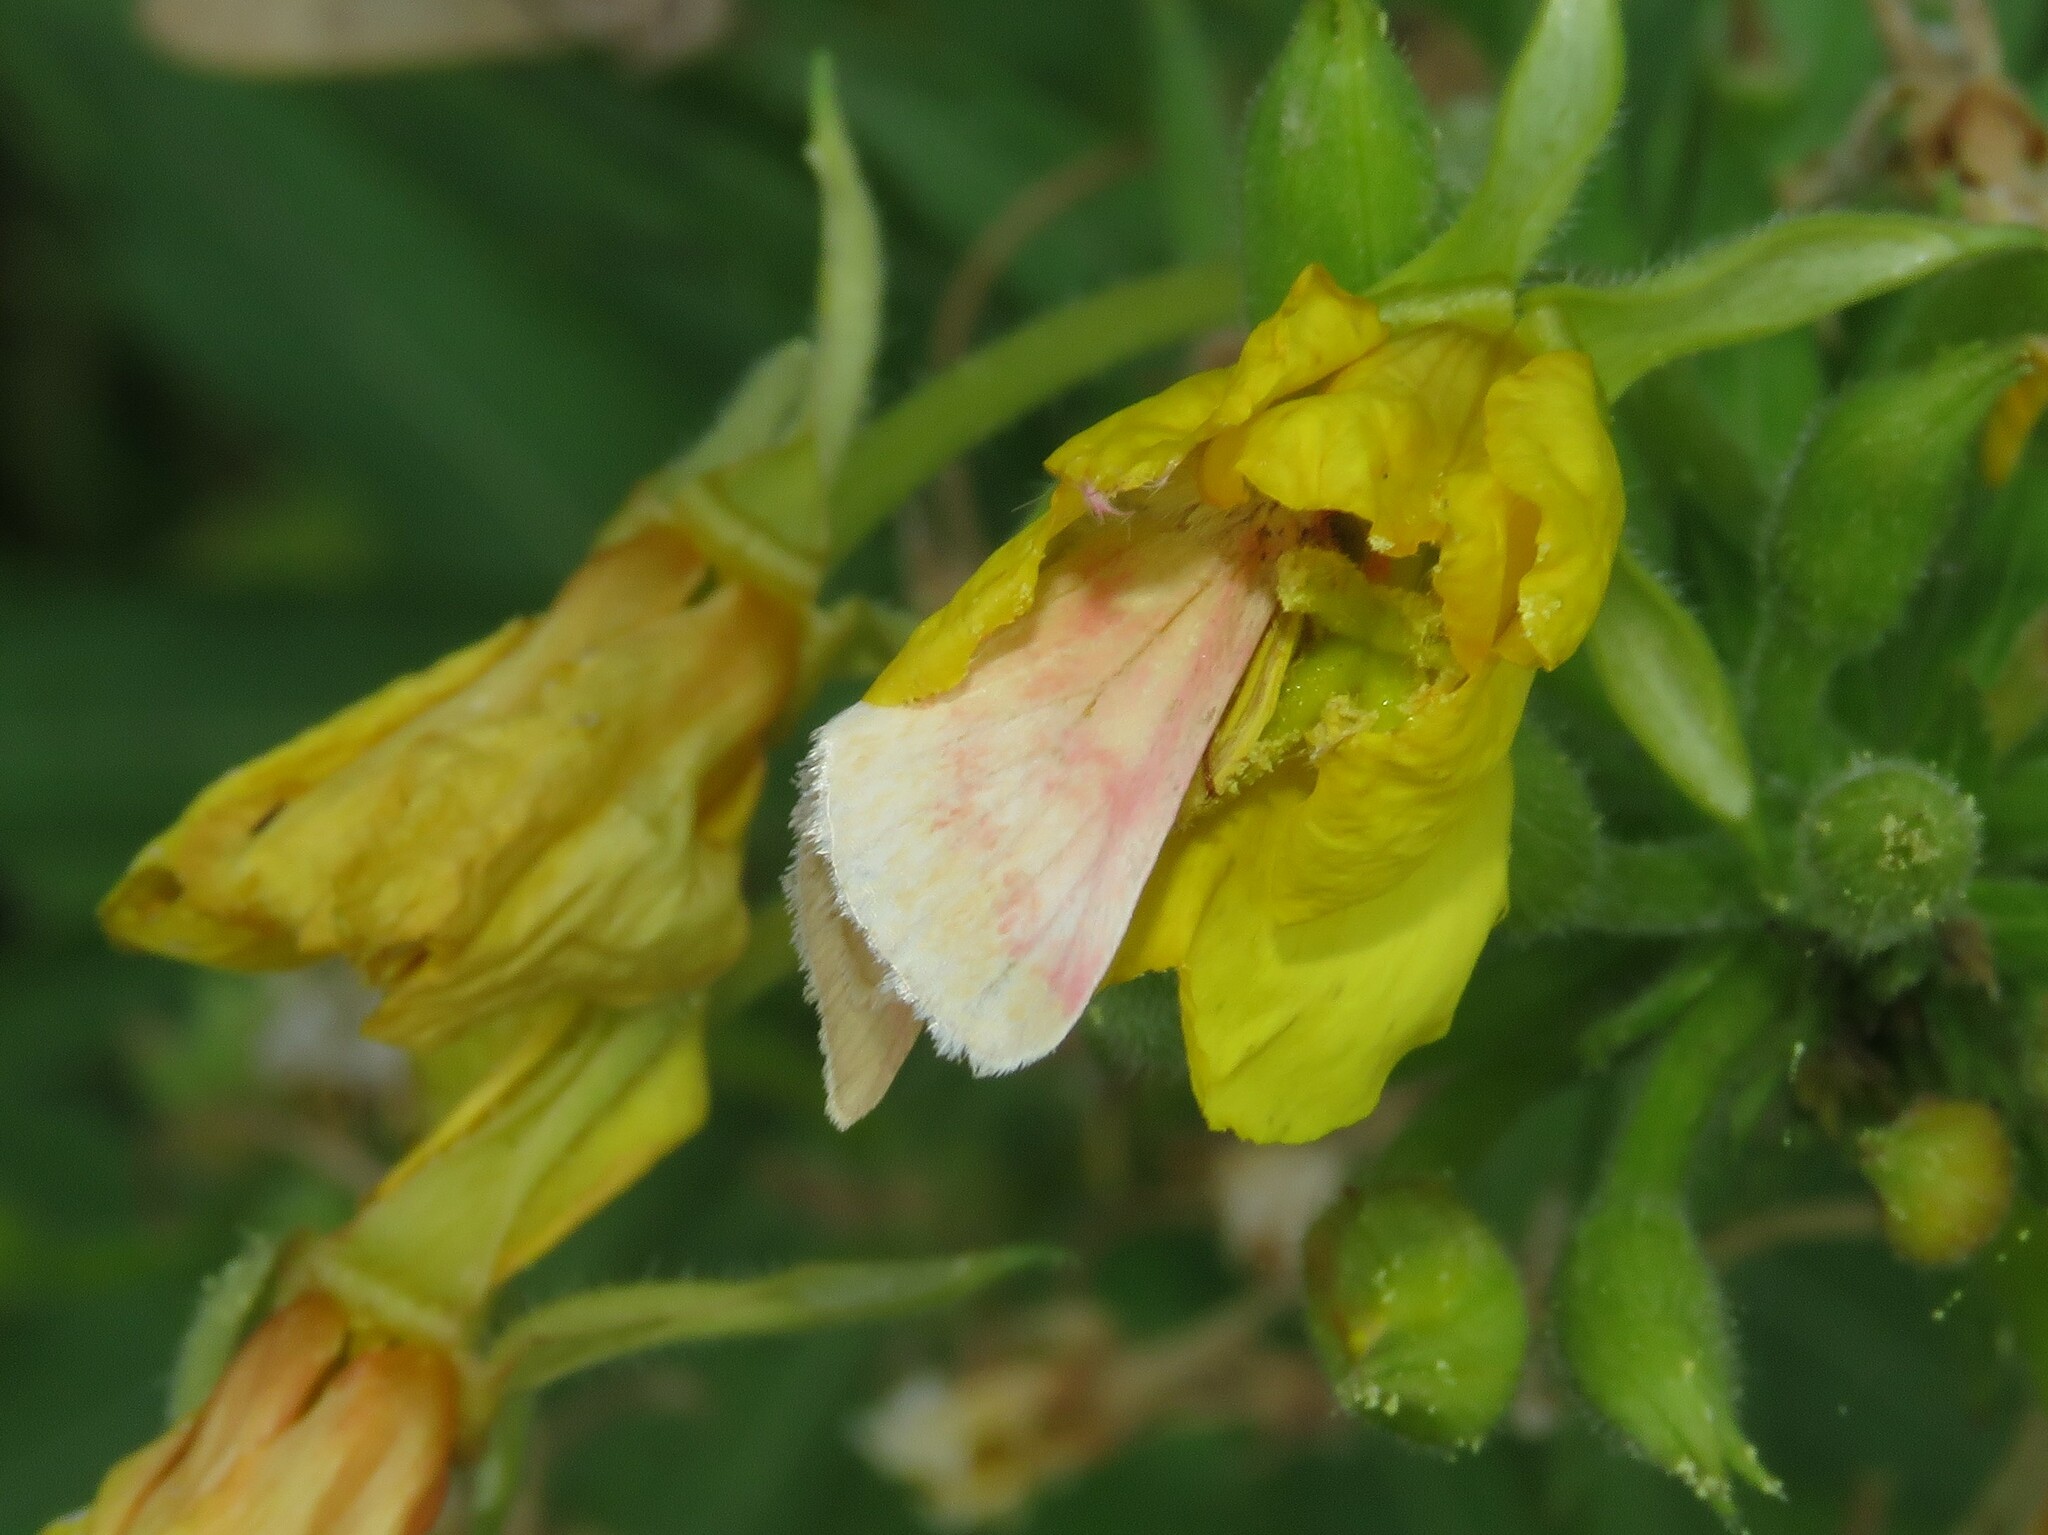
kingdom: Animalia
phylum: Arthropoda
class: Insecta
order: Lepidoptera
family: Noctuidae
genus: Schinia
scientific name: Schinia florida
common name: Primrose moth
